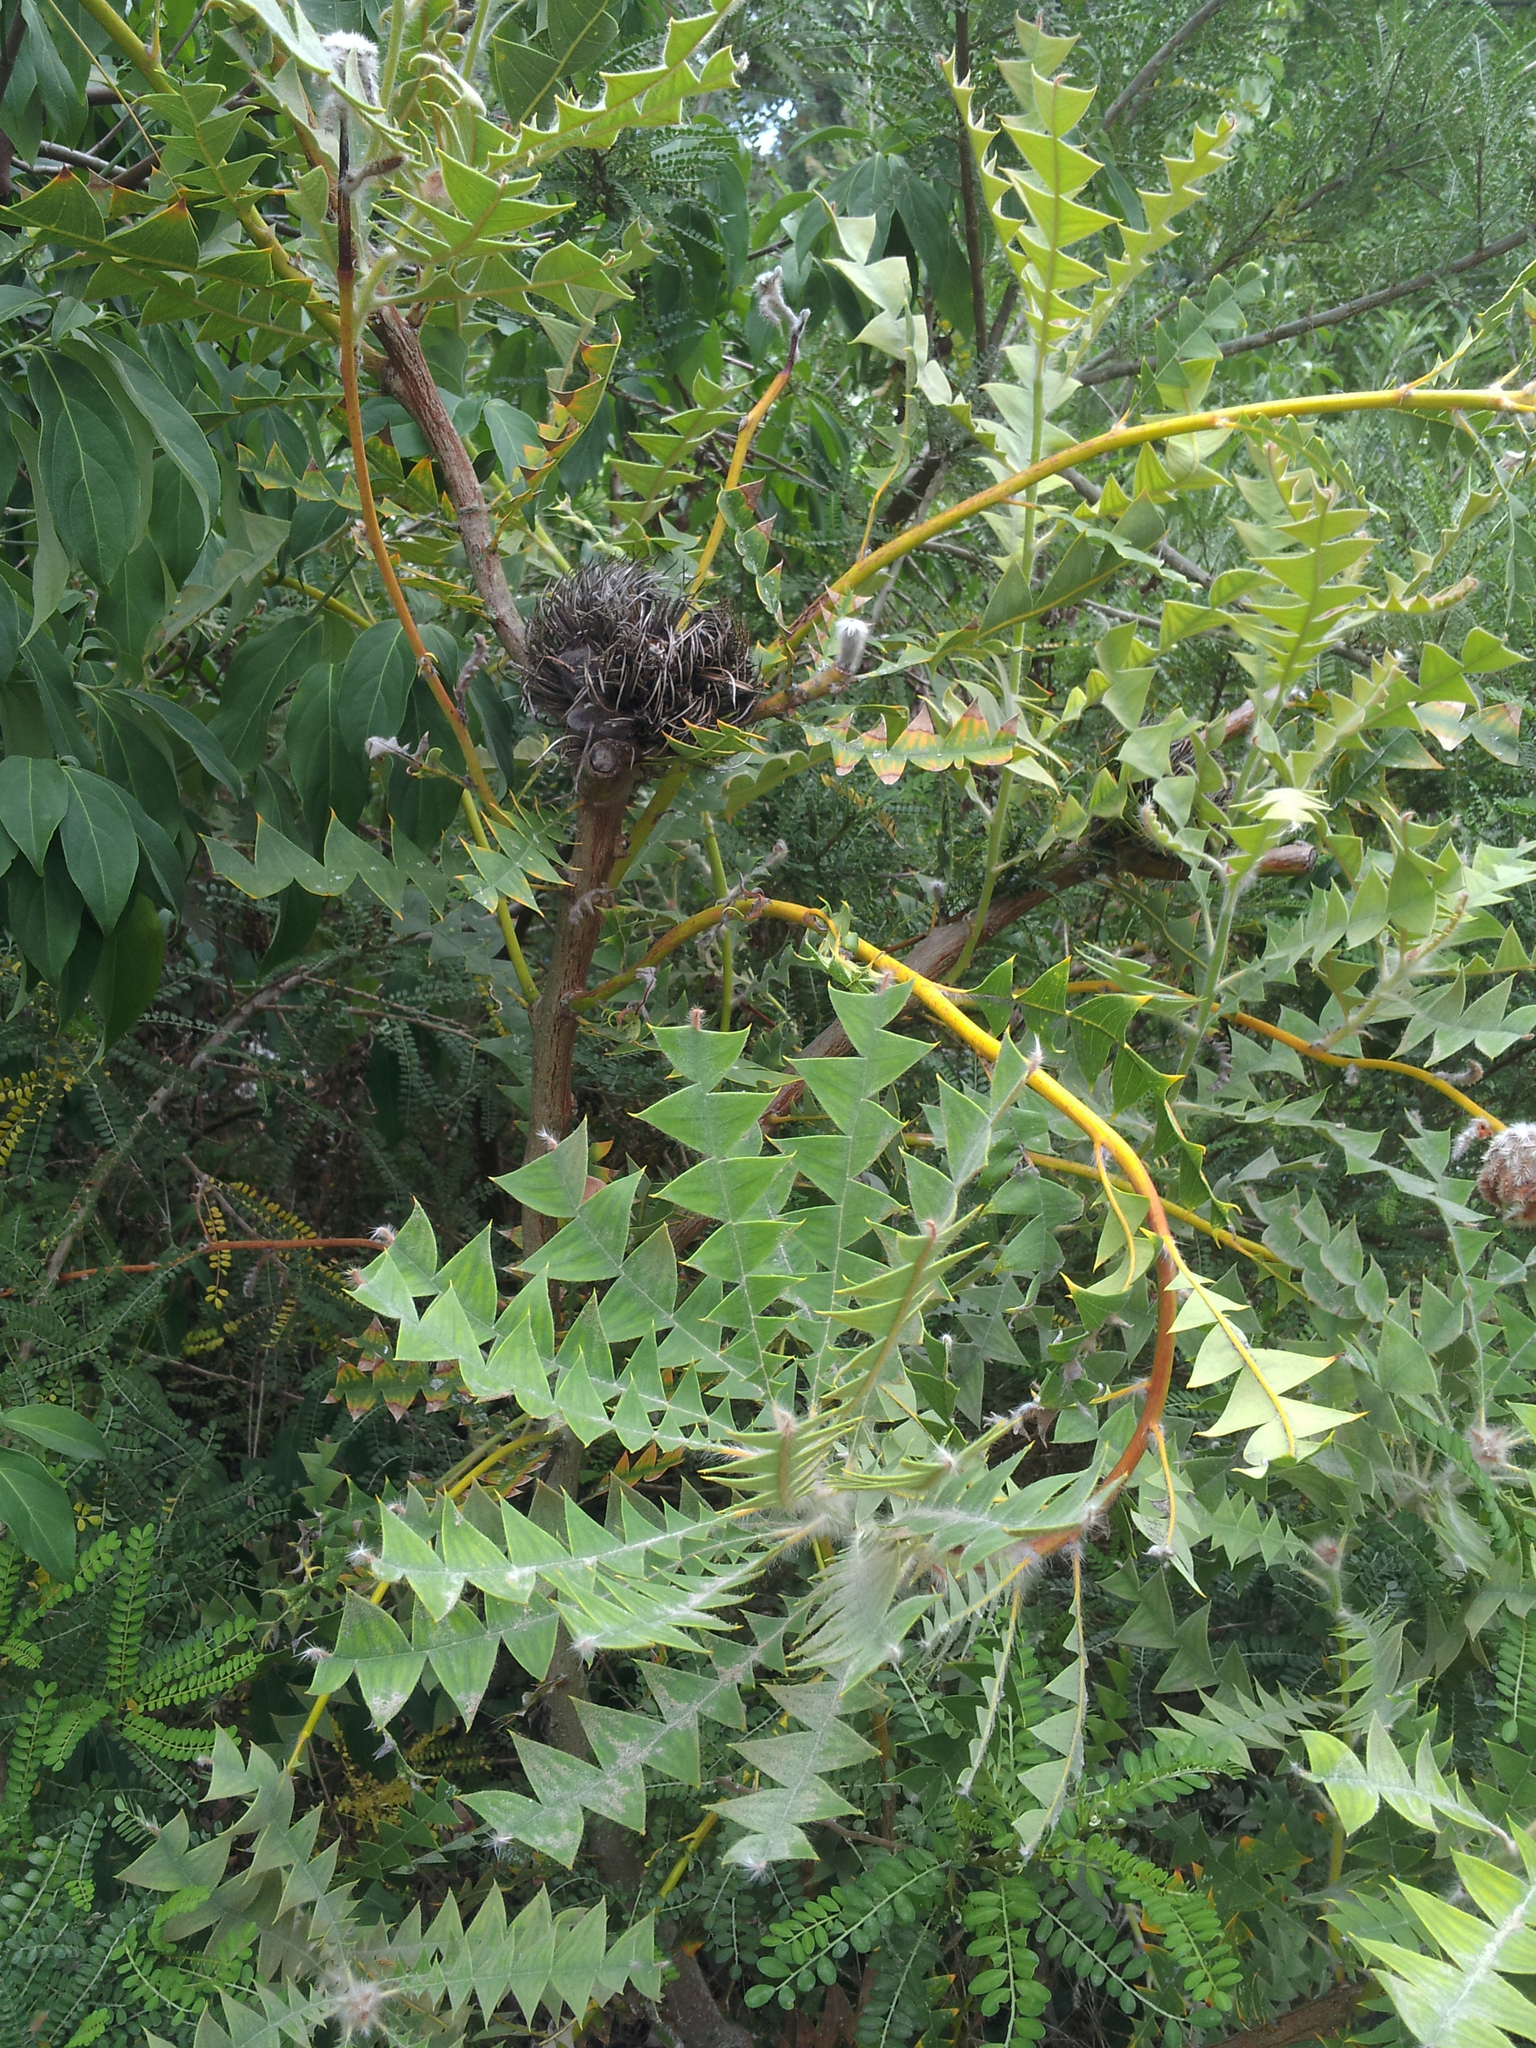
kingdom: Plantae
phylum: Tracheophyta
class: Magnoliopsida
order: Proteales
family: Proteaceae
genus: Banksia
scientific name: Banksia baxteri
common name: Bird's-nest banksia
